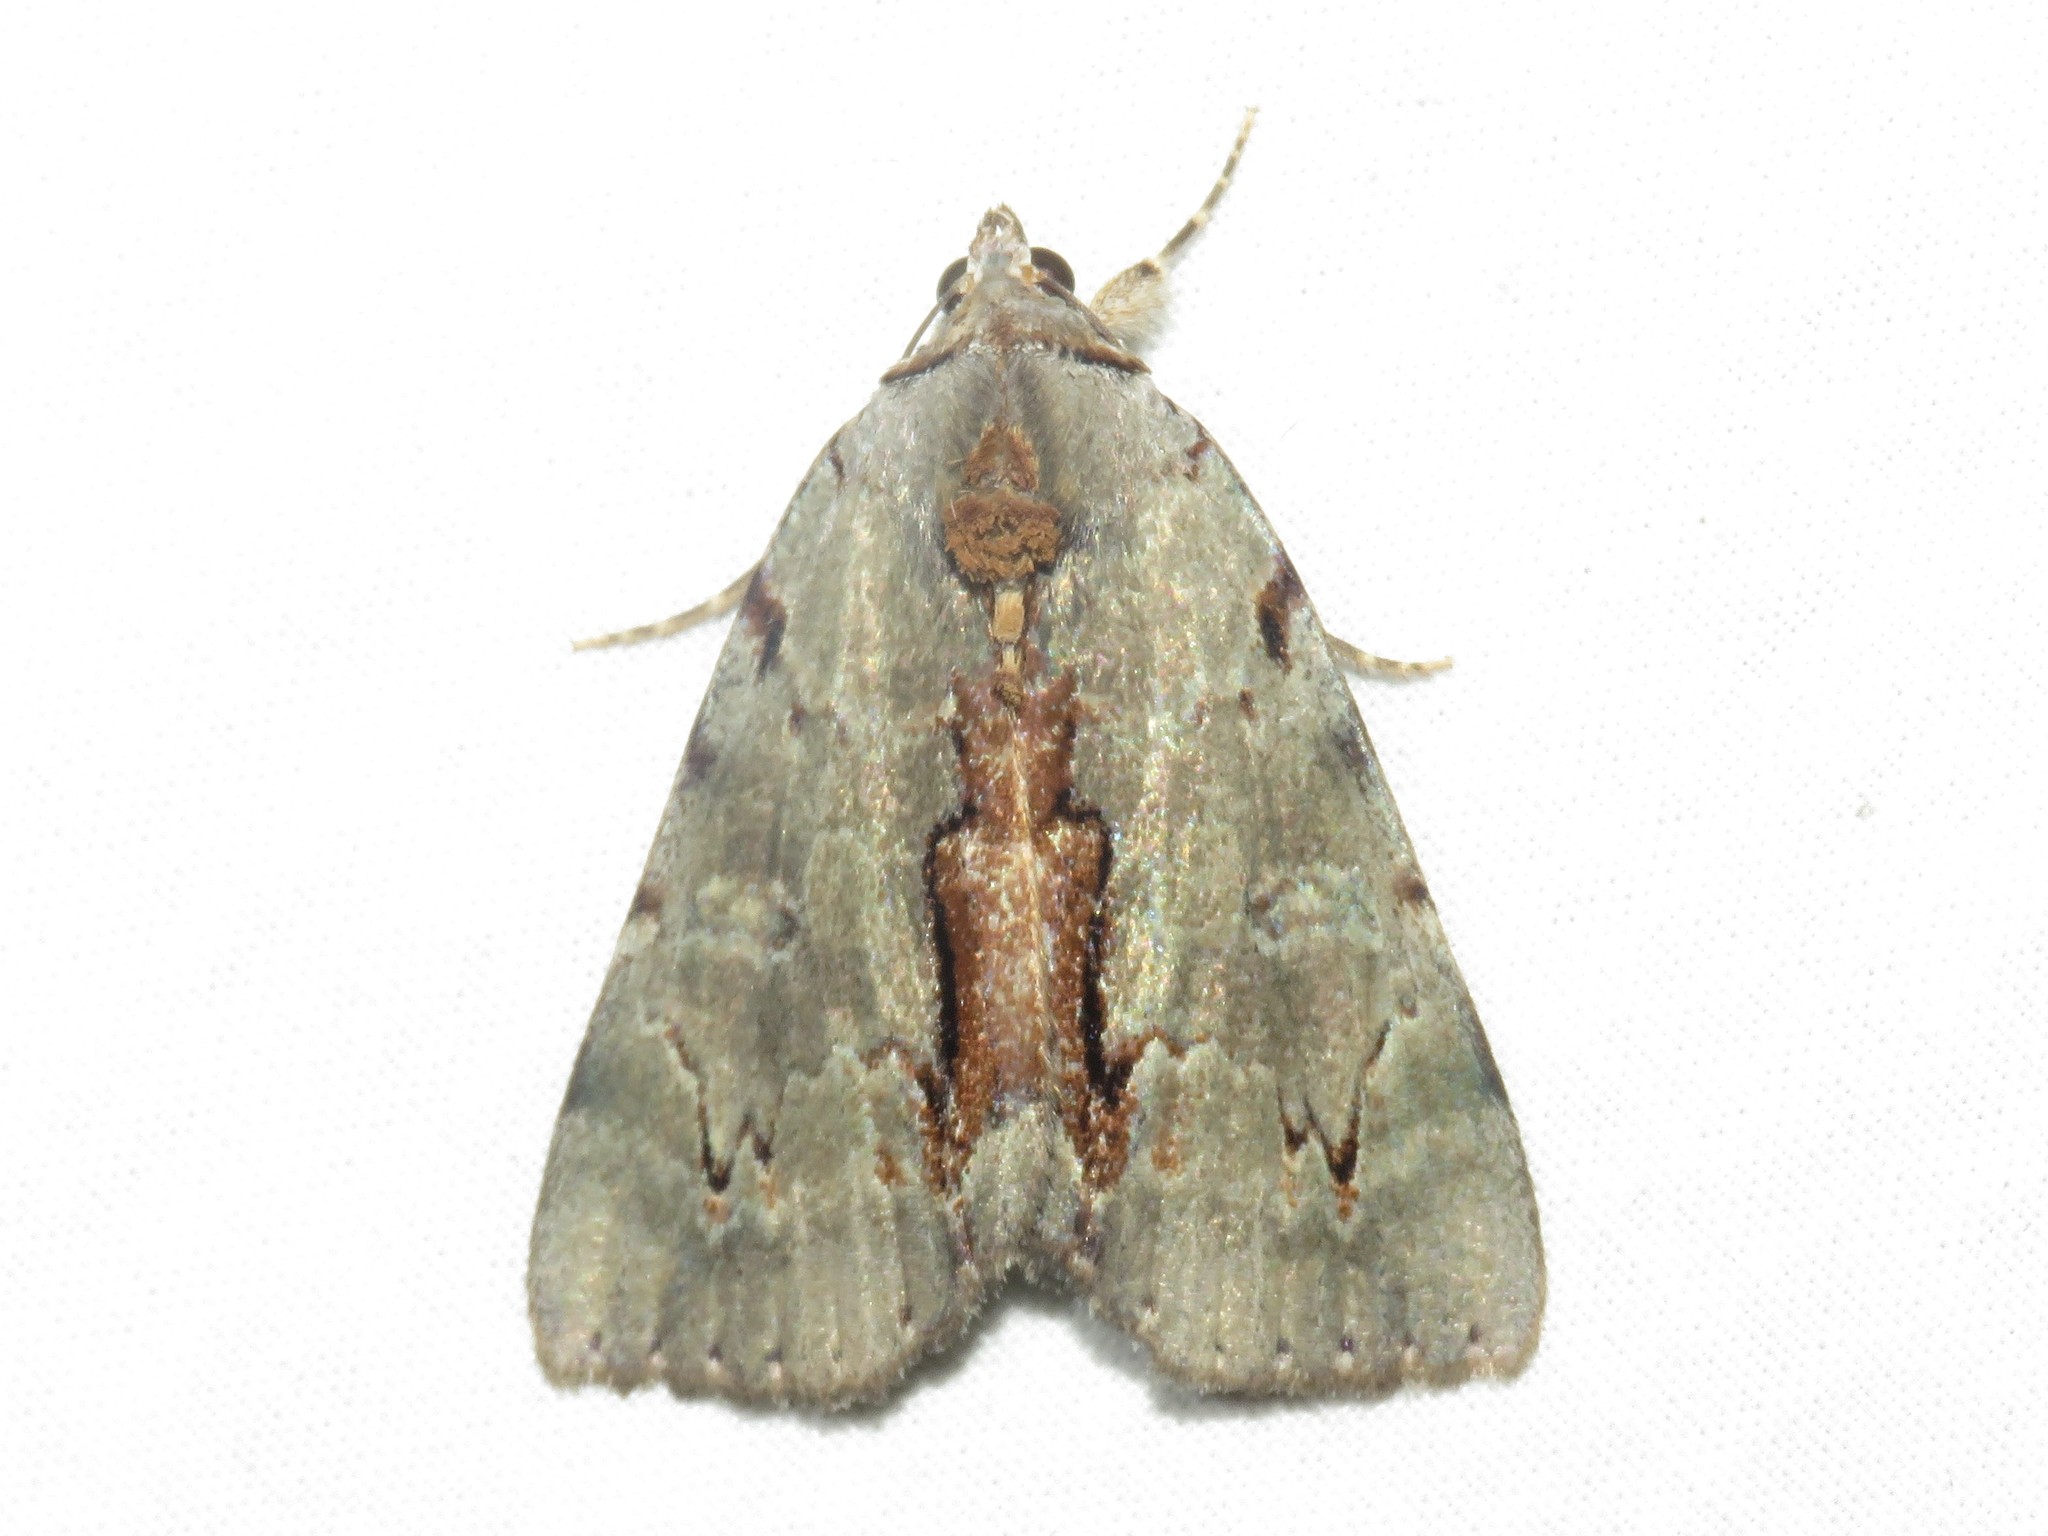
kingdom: Animalia
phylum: Arthropoda
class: Insecta
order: Lepidoptera
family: Erebidae
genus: Catocala
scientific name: Catocala grynea
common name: Woody underwing
